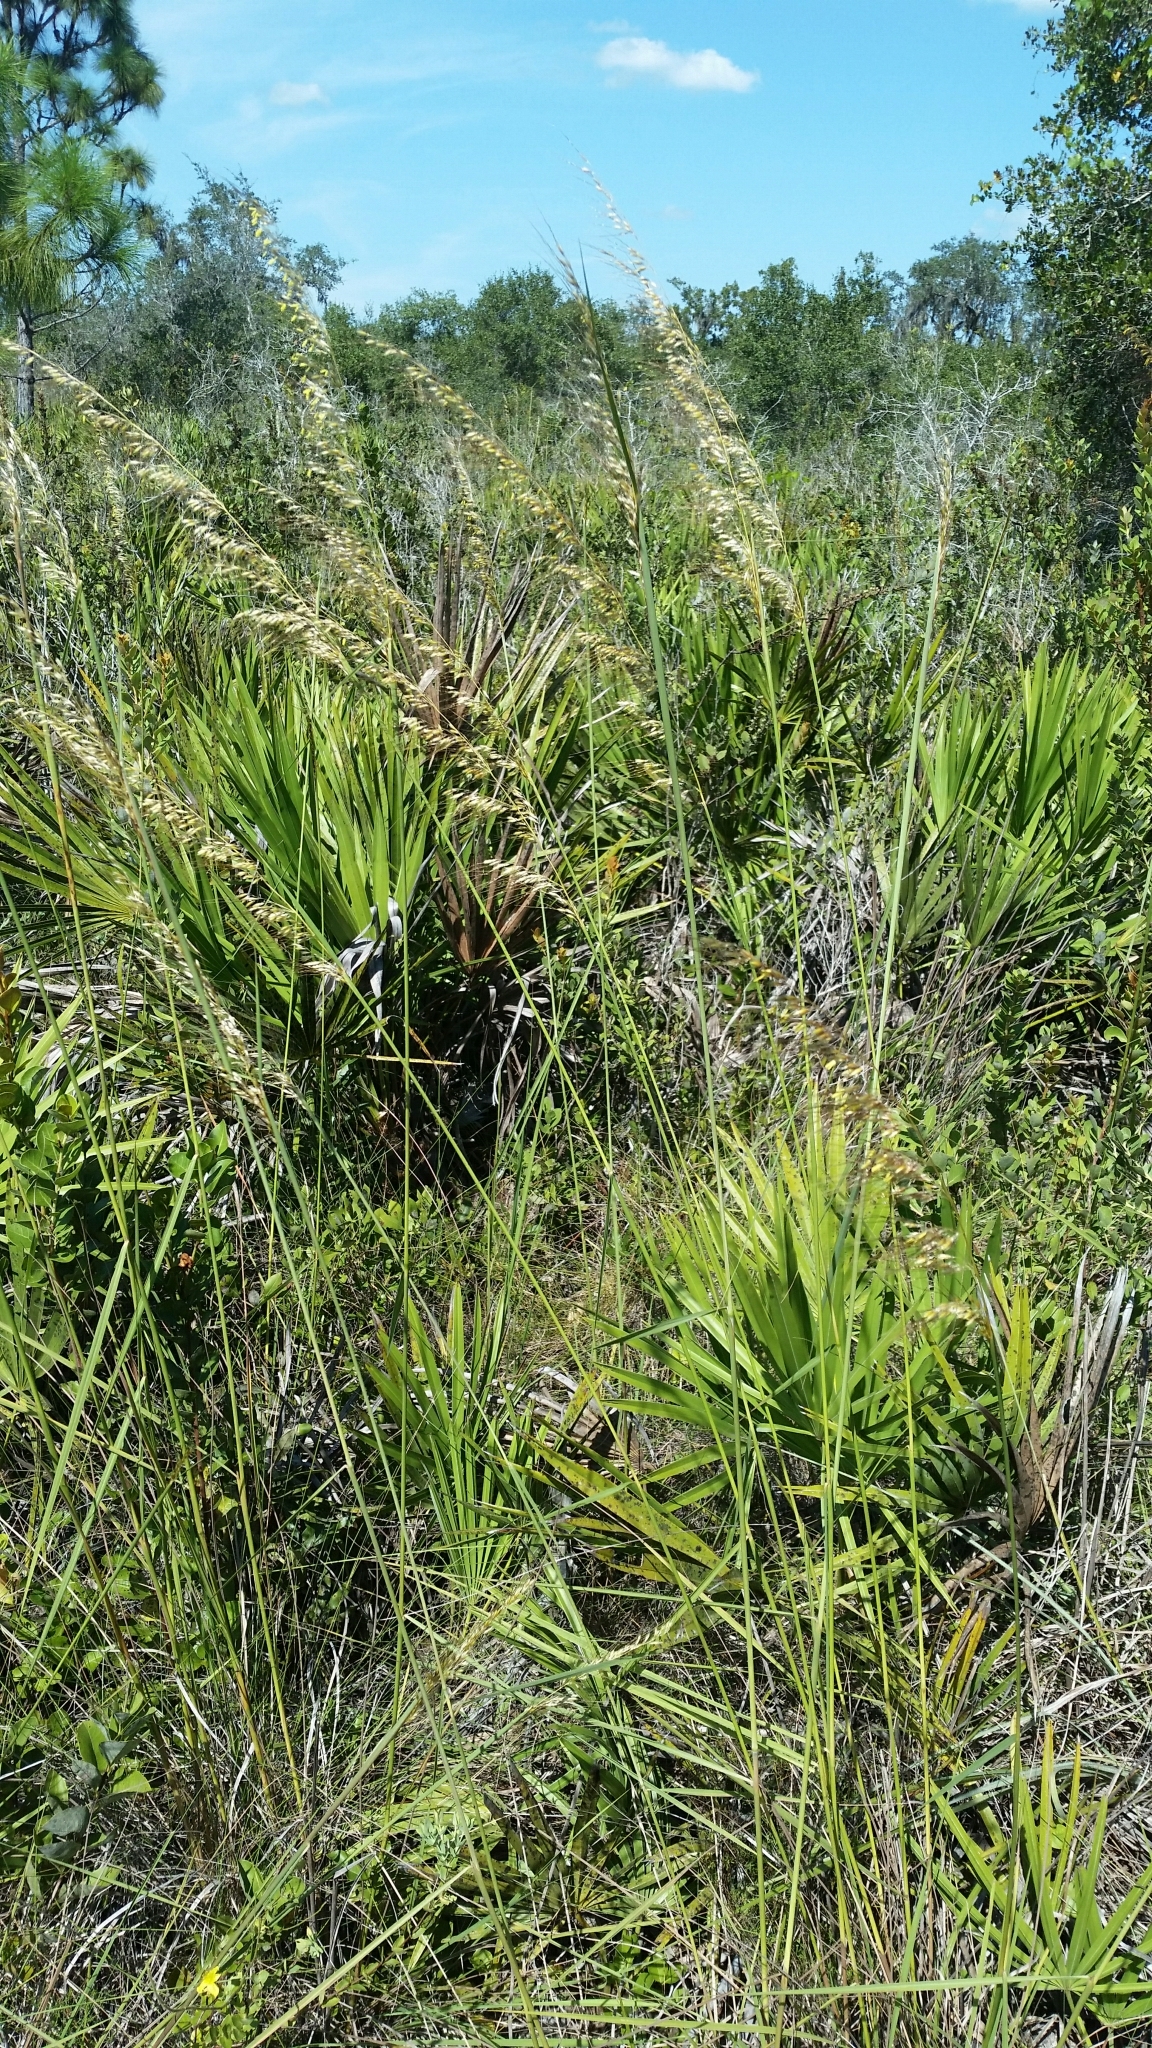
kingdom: Plantae
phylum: Tracheophyta
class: Liliopsida
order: Poales
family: Poaceae
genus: Sorghastrum
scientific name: Sorghastrum secundum
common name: Lopsided indian grass
